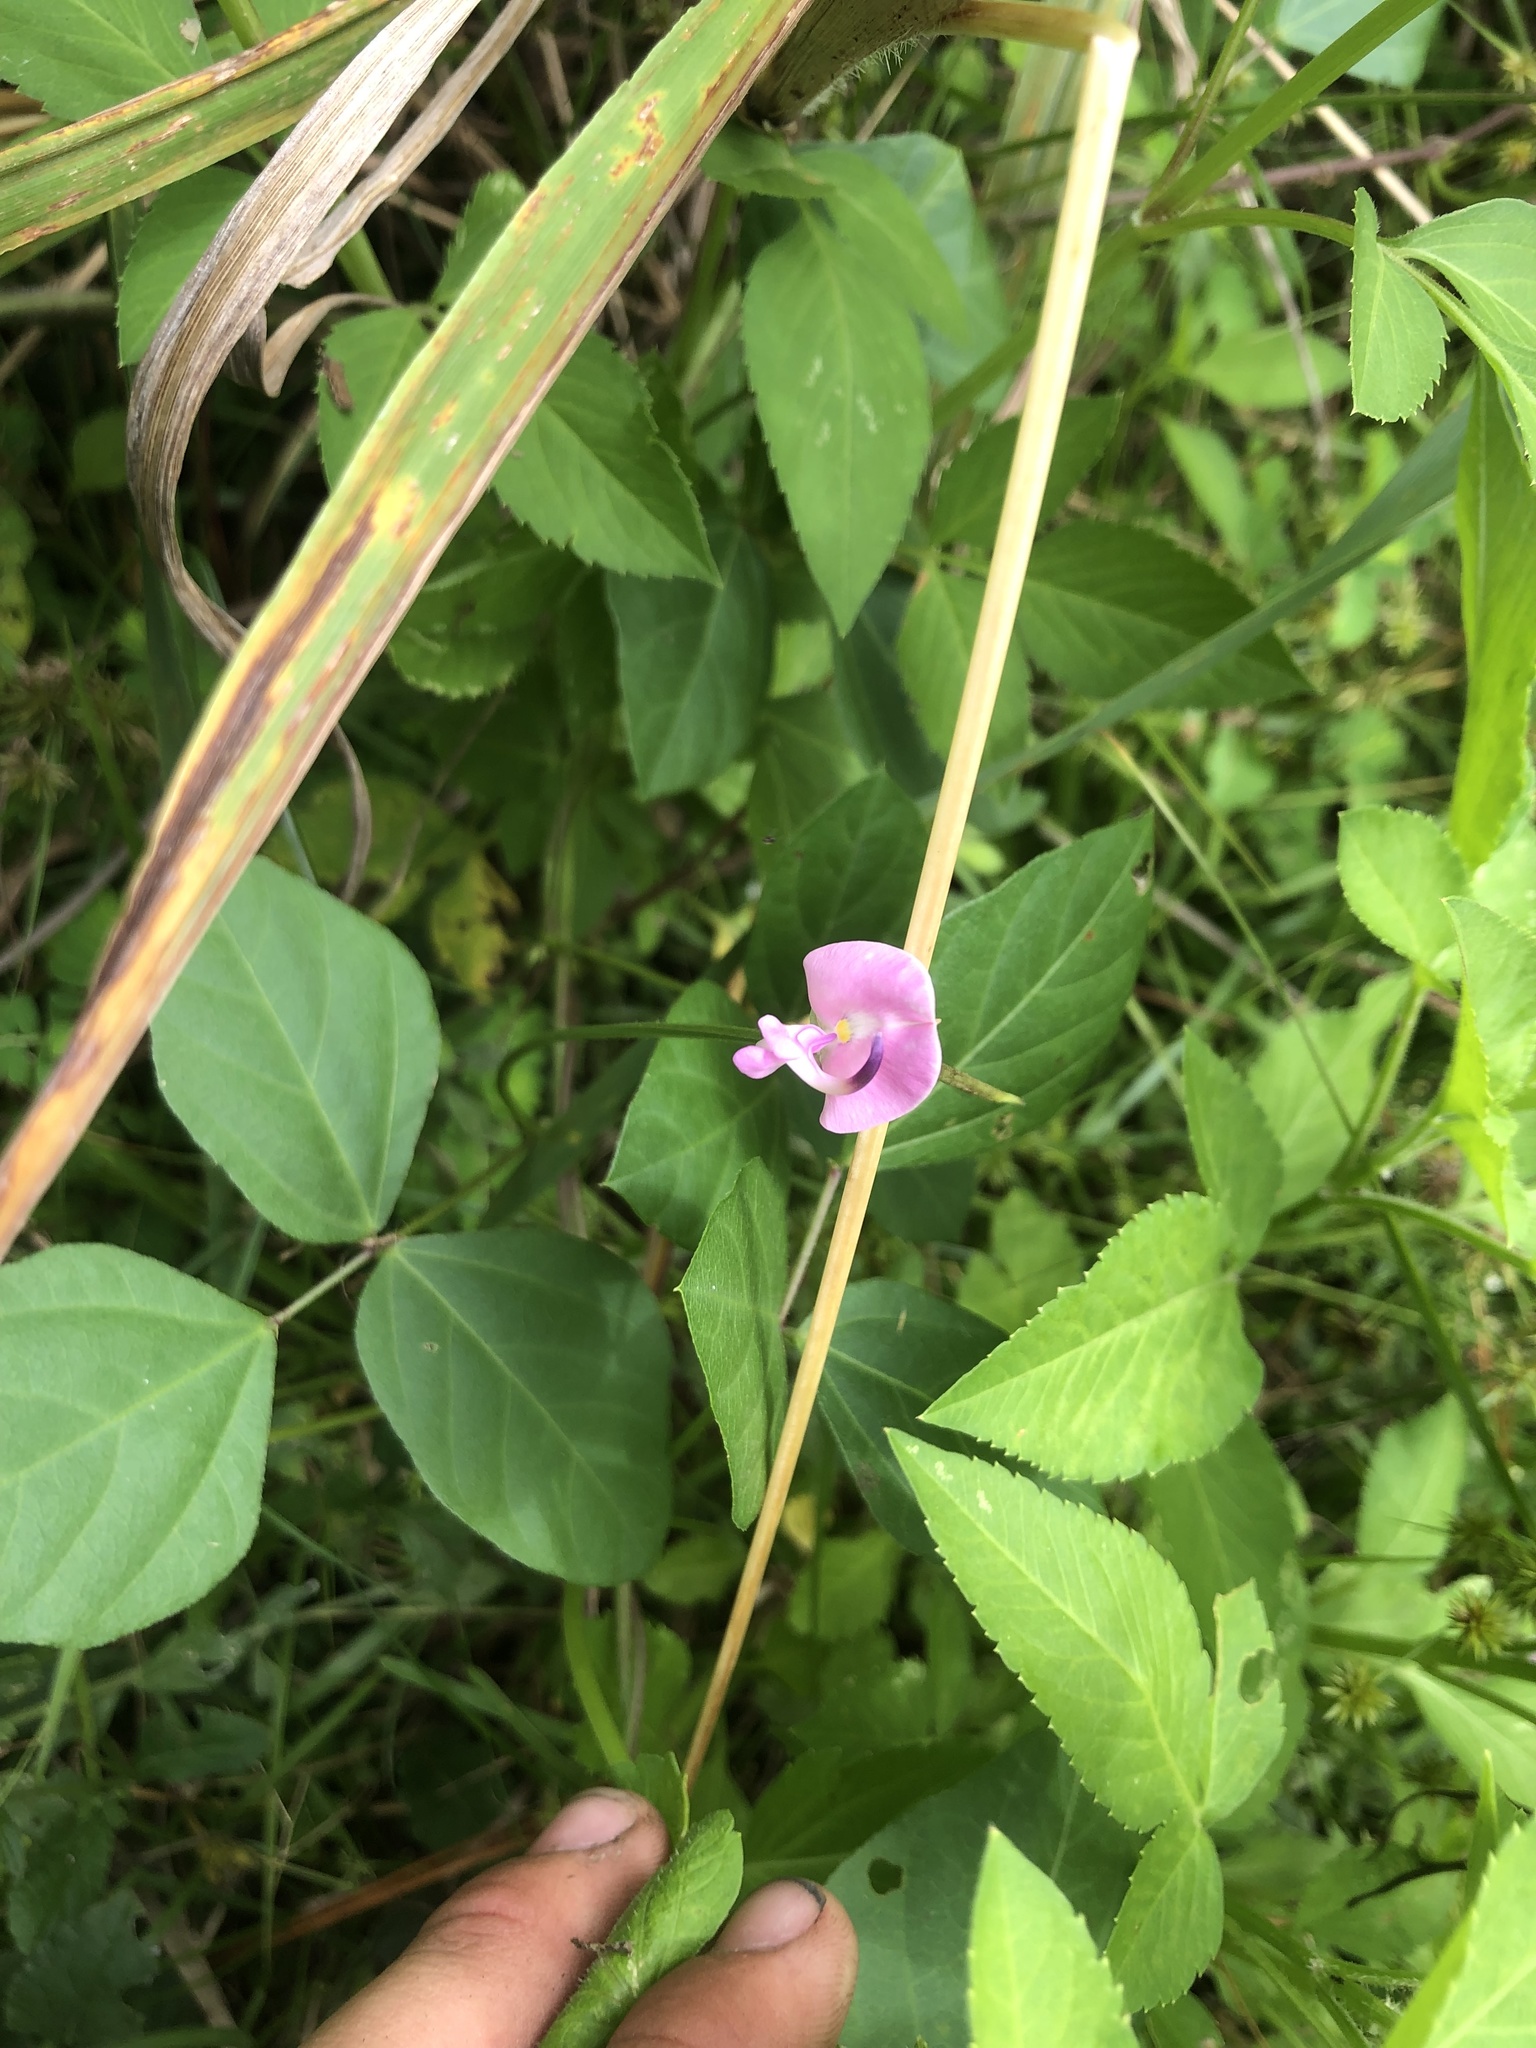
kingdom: Plantae
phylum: Tracheophyta
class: Magnoliopsida
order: Fabales
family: Fabaceae
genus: Strophostyles
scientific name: Strophostyles helvola
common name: Trailing wild bean
